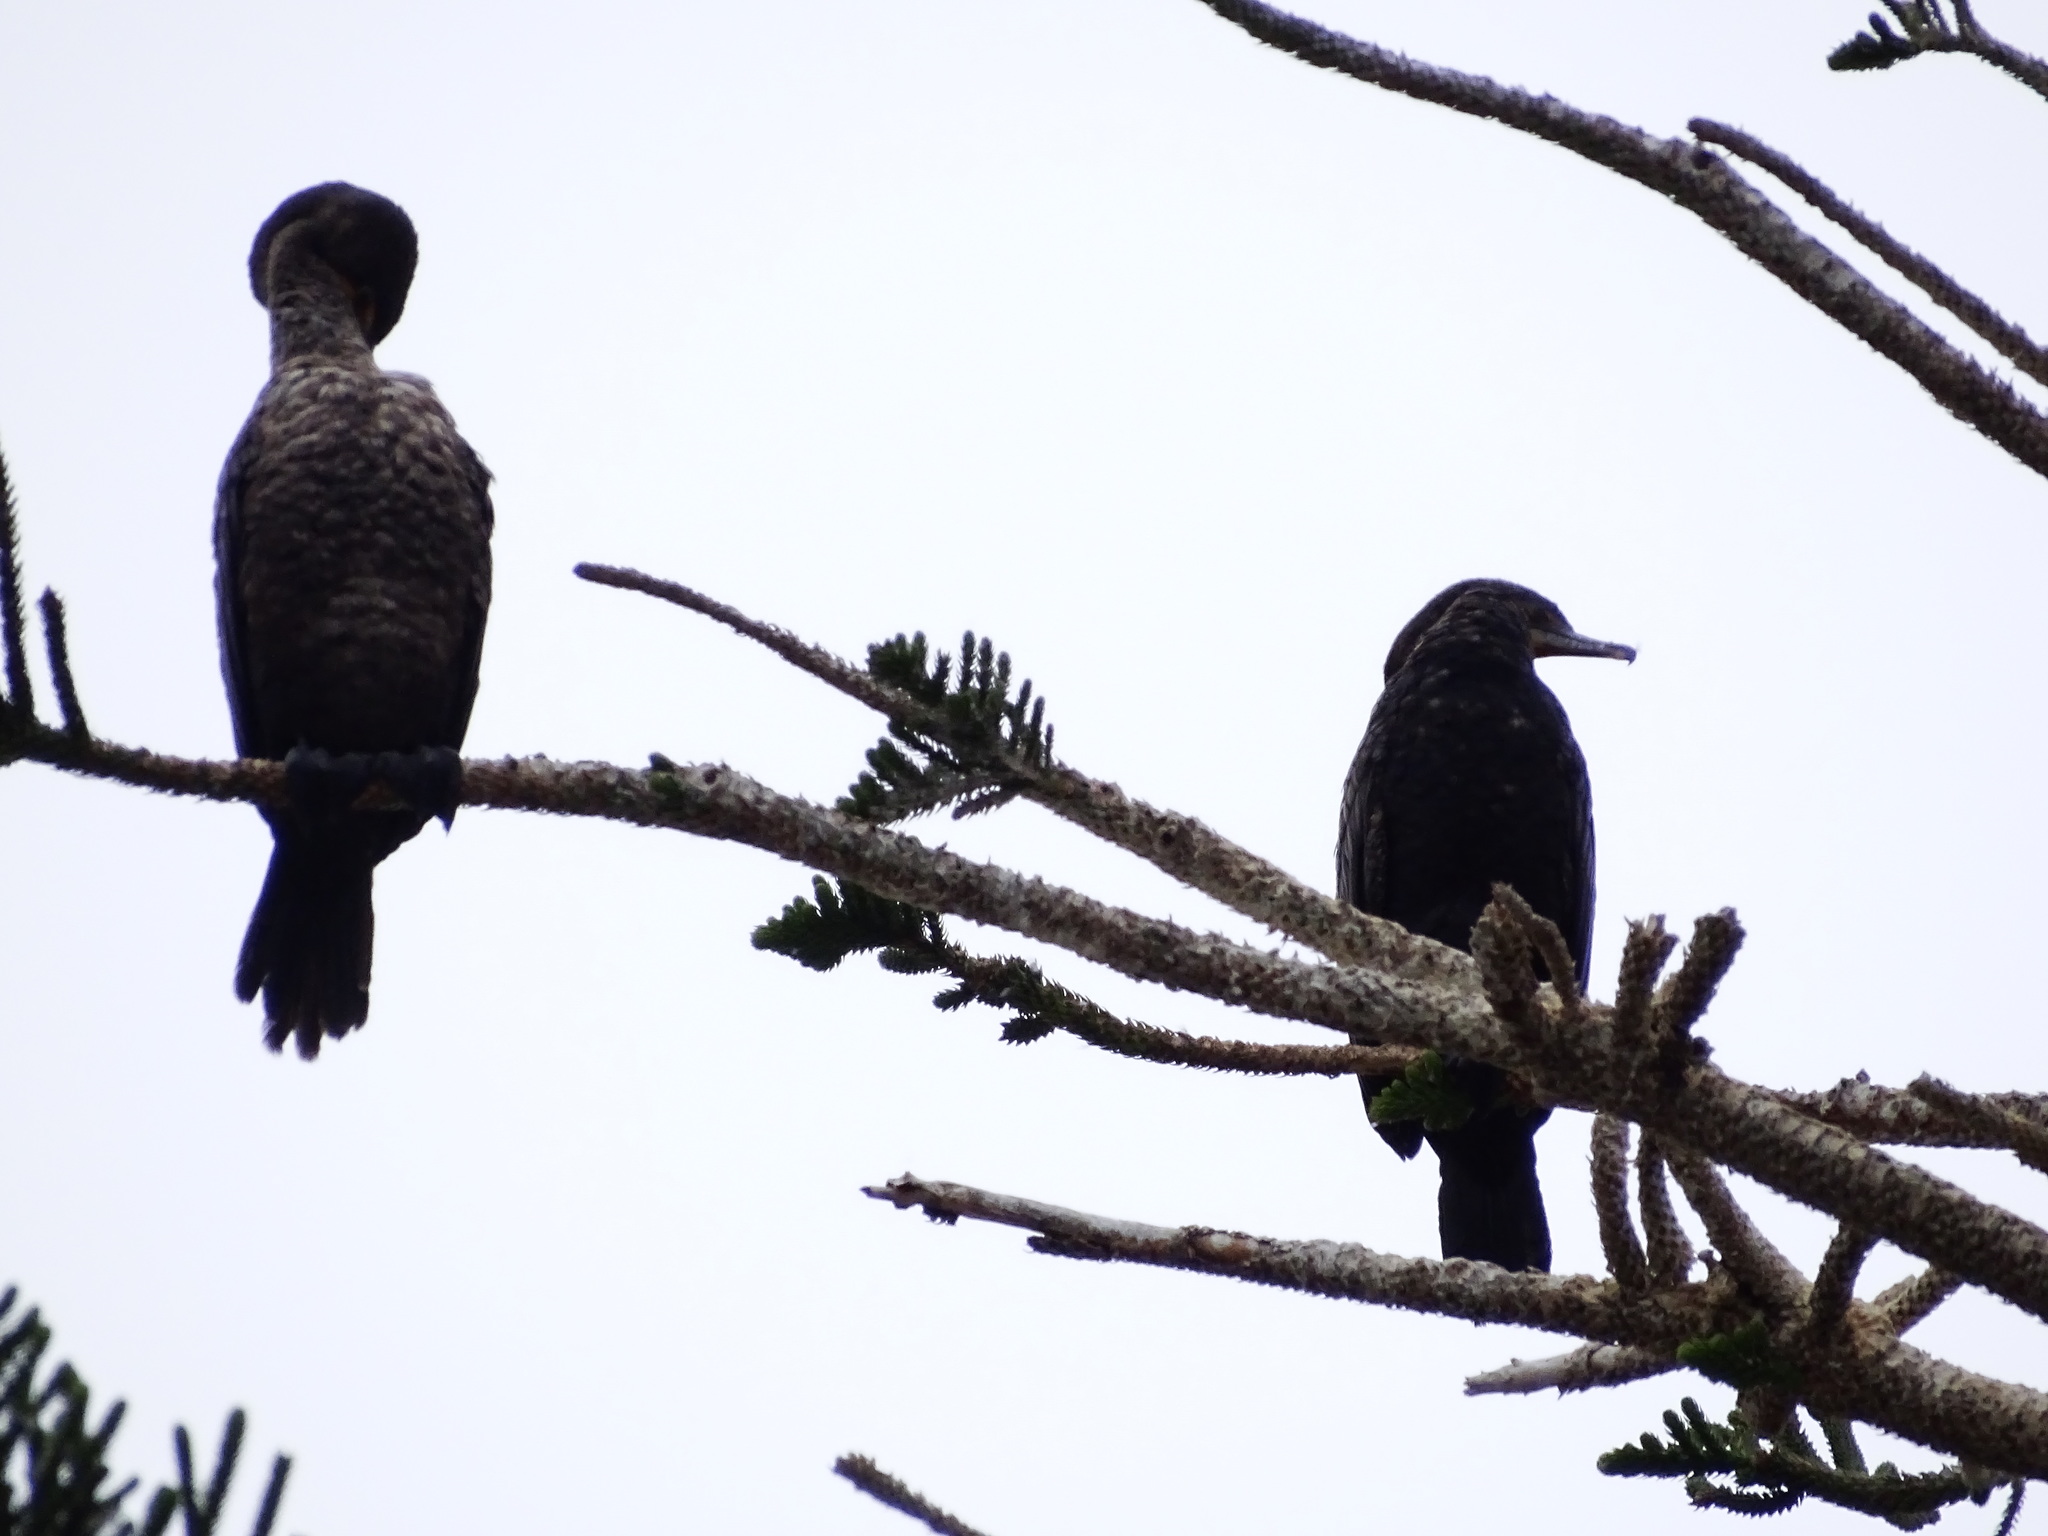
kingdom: Animalia
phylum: Chordata
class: Aves
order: Suliformes
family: Phalacrocoracidae
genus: Phalacrocorax
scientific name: Phalacrocorax auritus
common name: Double-crested cormorant
